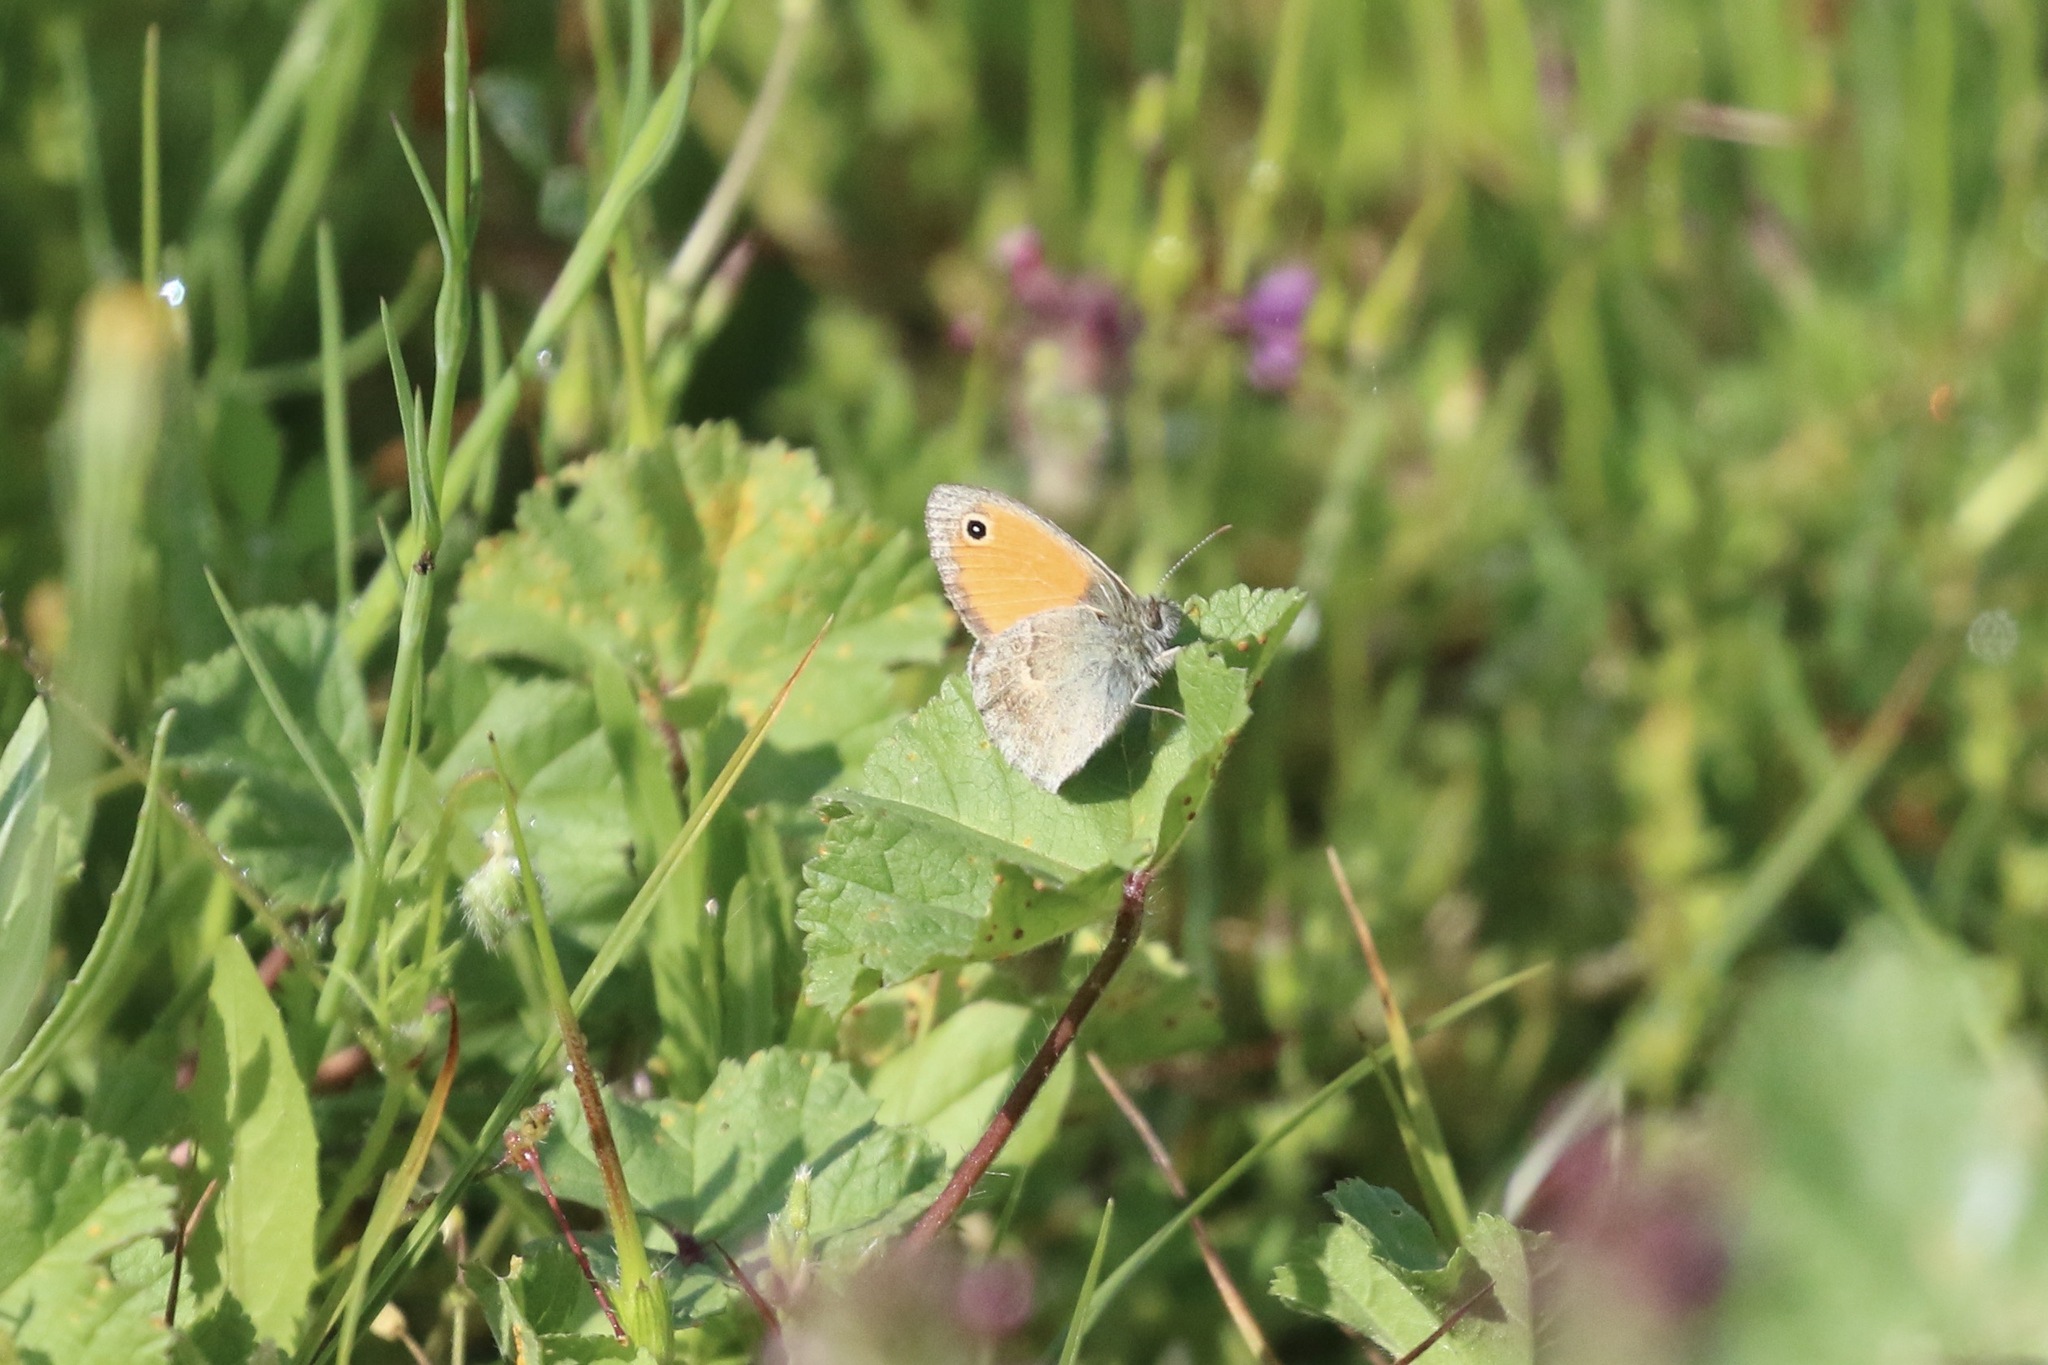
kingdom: Animalia
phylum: Arthropoda
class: Insecta
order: Lepidoptera
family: Nymphalidae
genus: Coenonympha
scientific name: Coenonympha pamphilus
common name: Small heath
